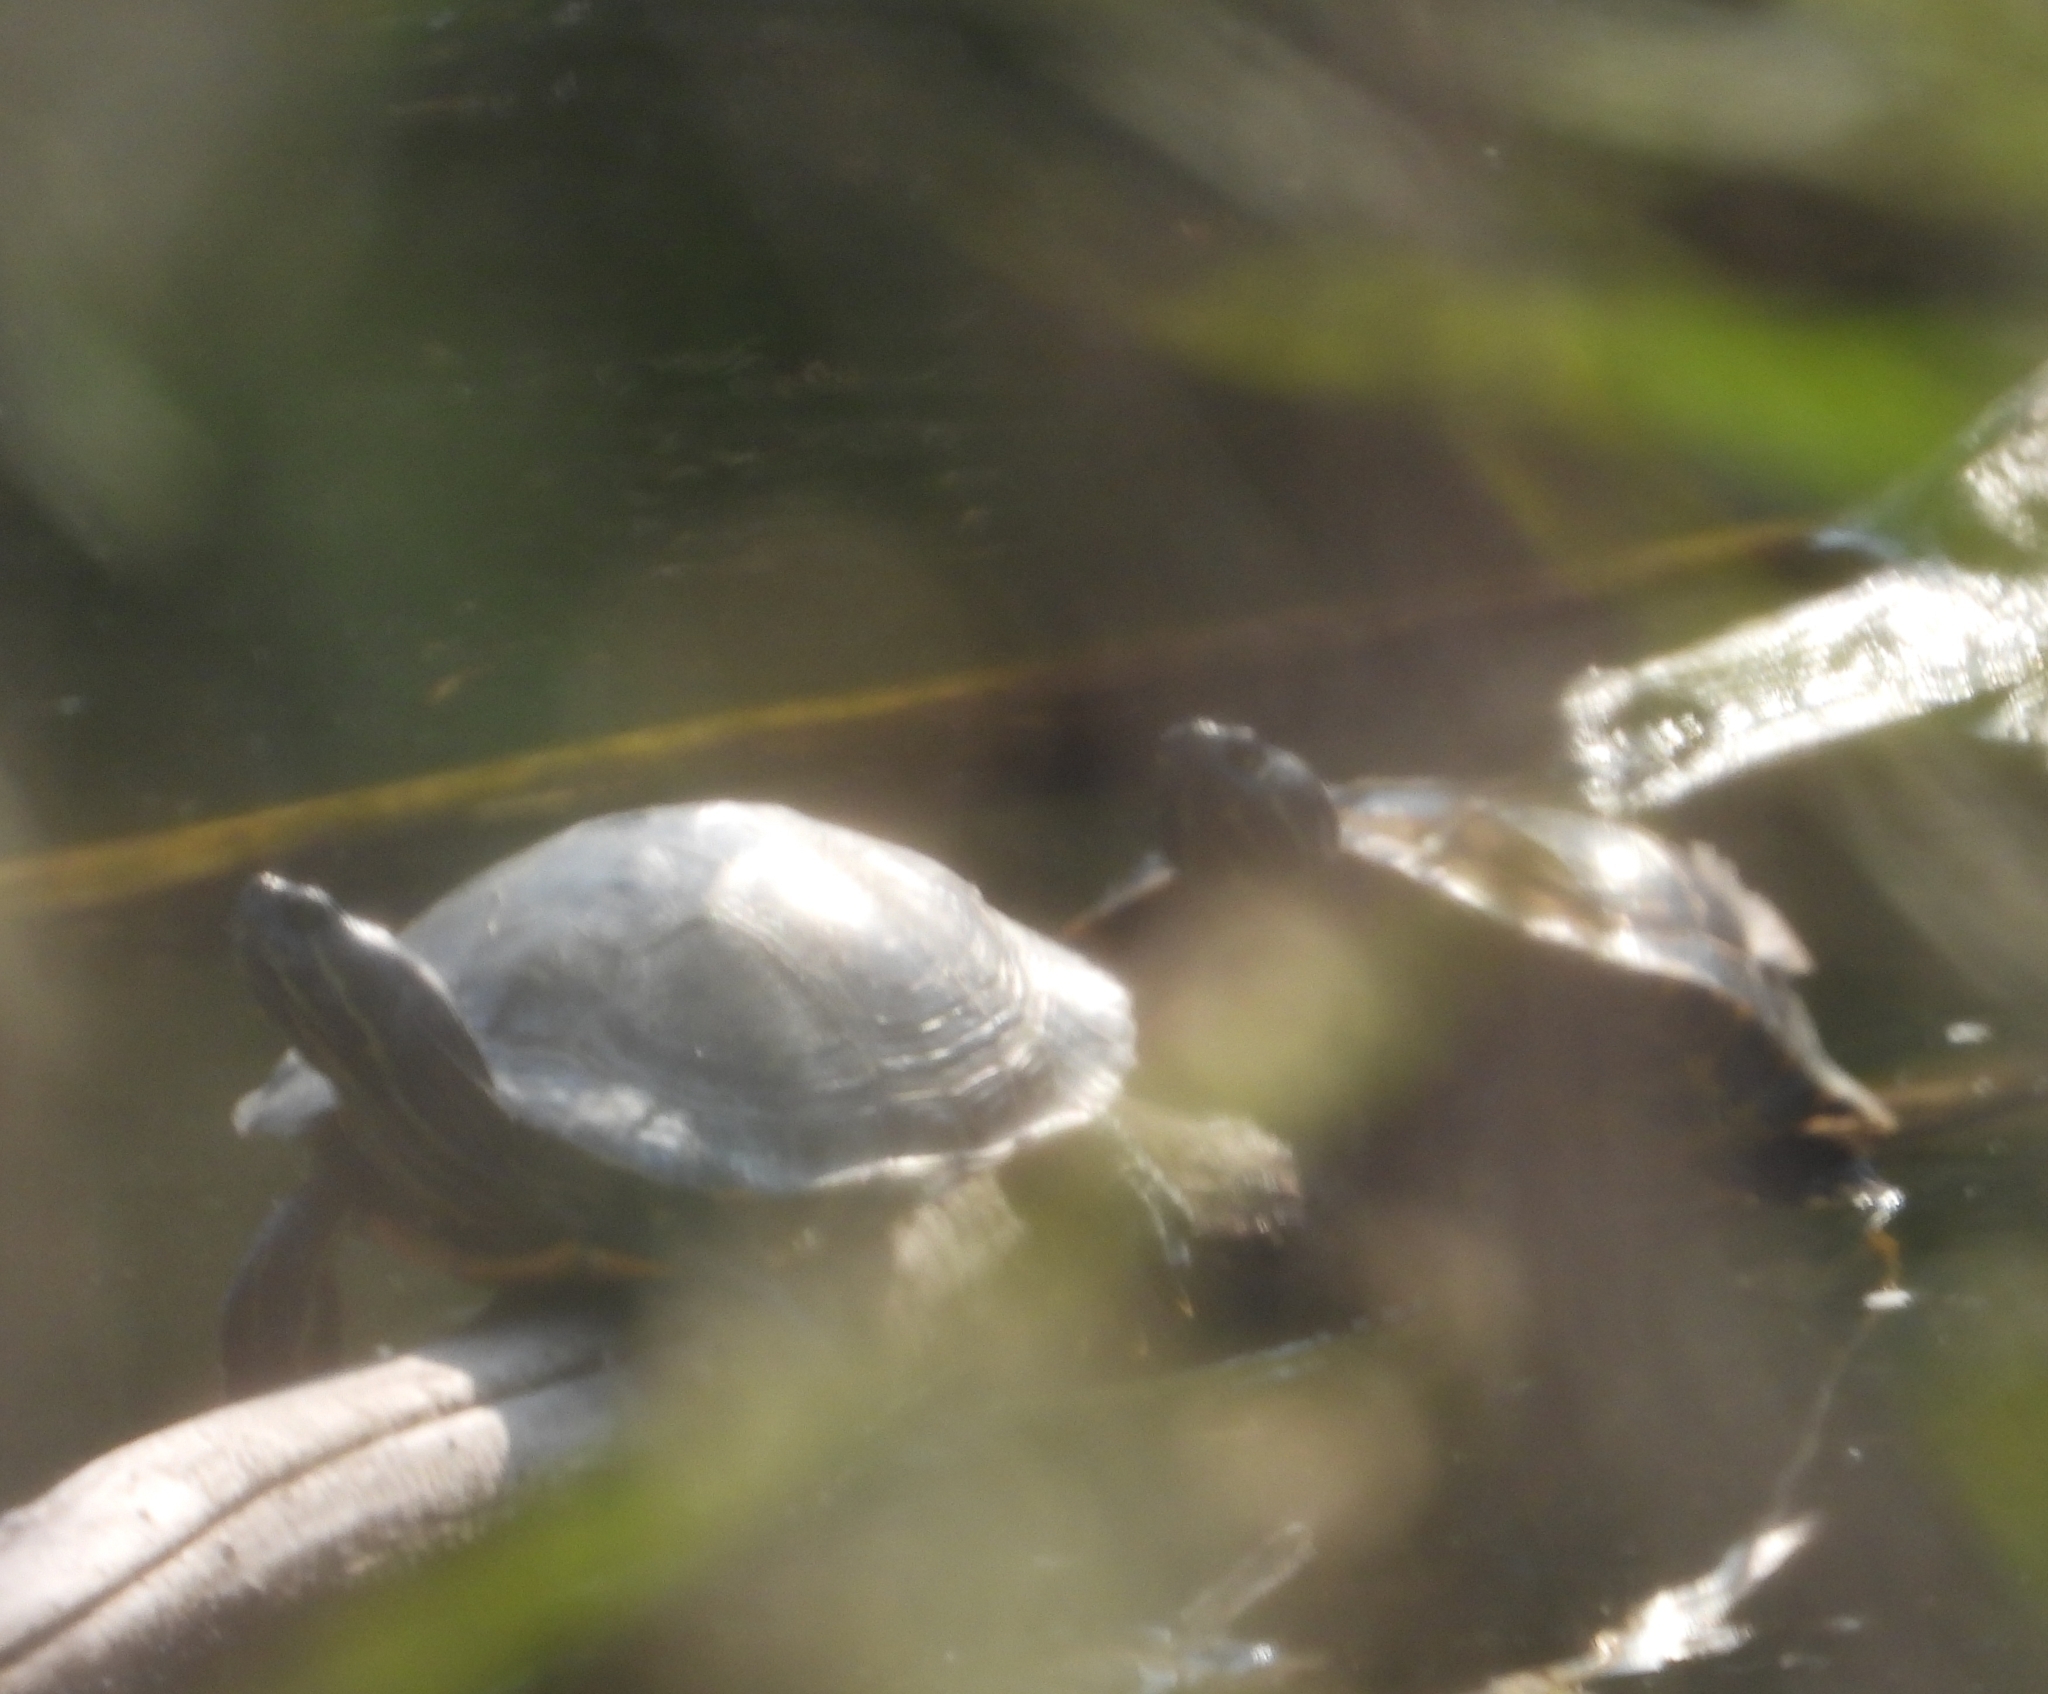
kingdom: Animalia
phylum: Chordata
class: Testudines
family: Emydidae
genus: Trachemys
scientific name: Trachemys scripta
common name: Slider
